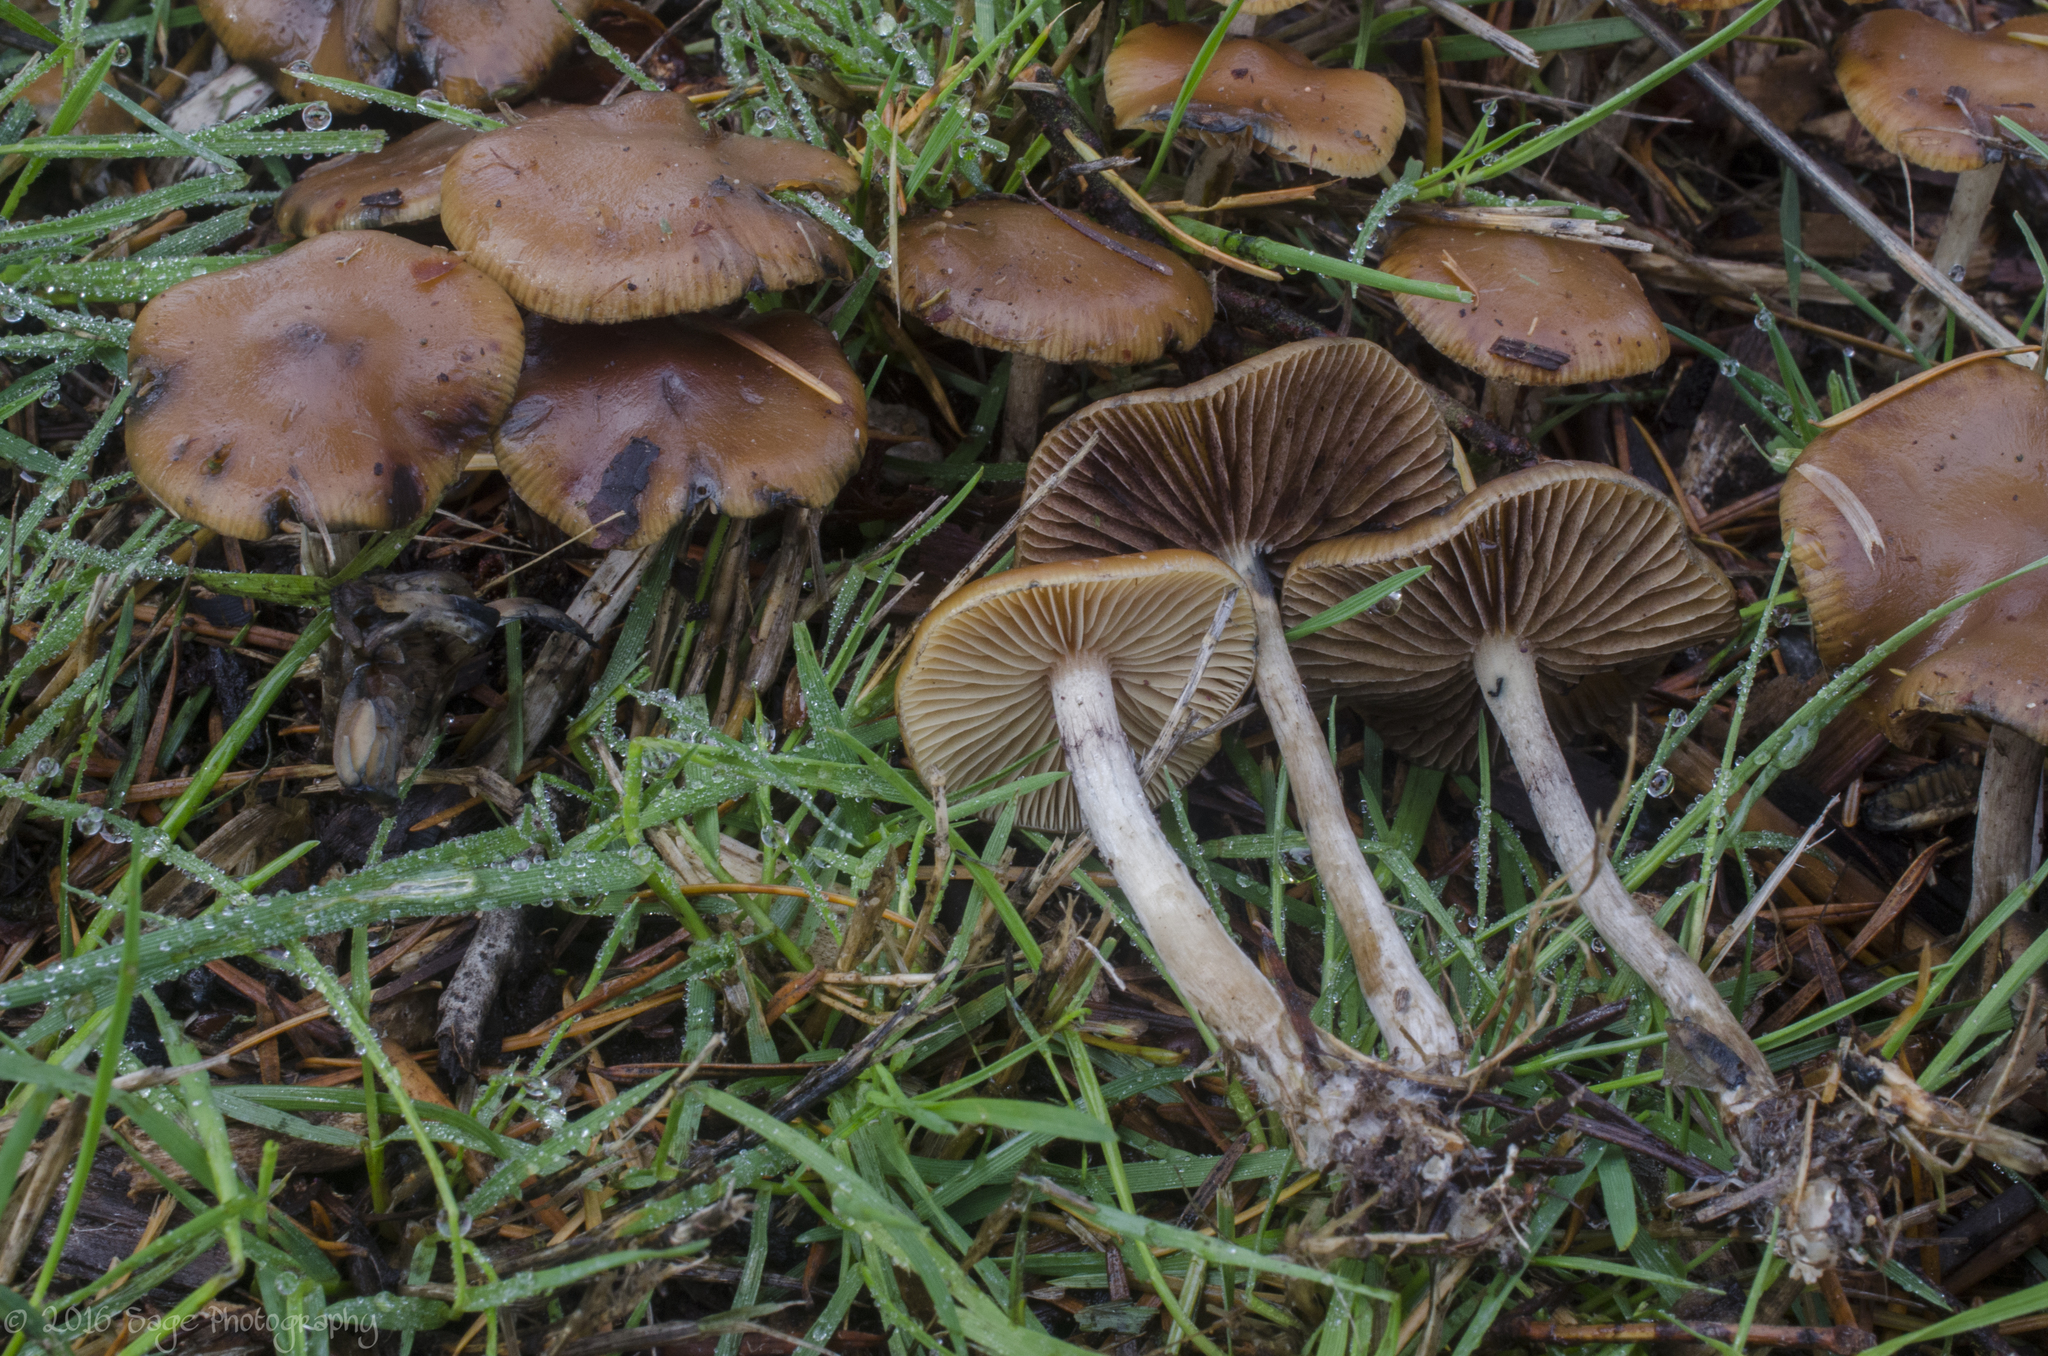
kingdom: Fungi
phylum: Basidiomycota
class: Agaricomycetes
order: Agaricales
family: Hymenogastraceae
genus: Psilocybe
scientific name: Psilocybe cyanescens
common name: Blueleg brownie
